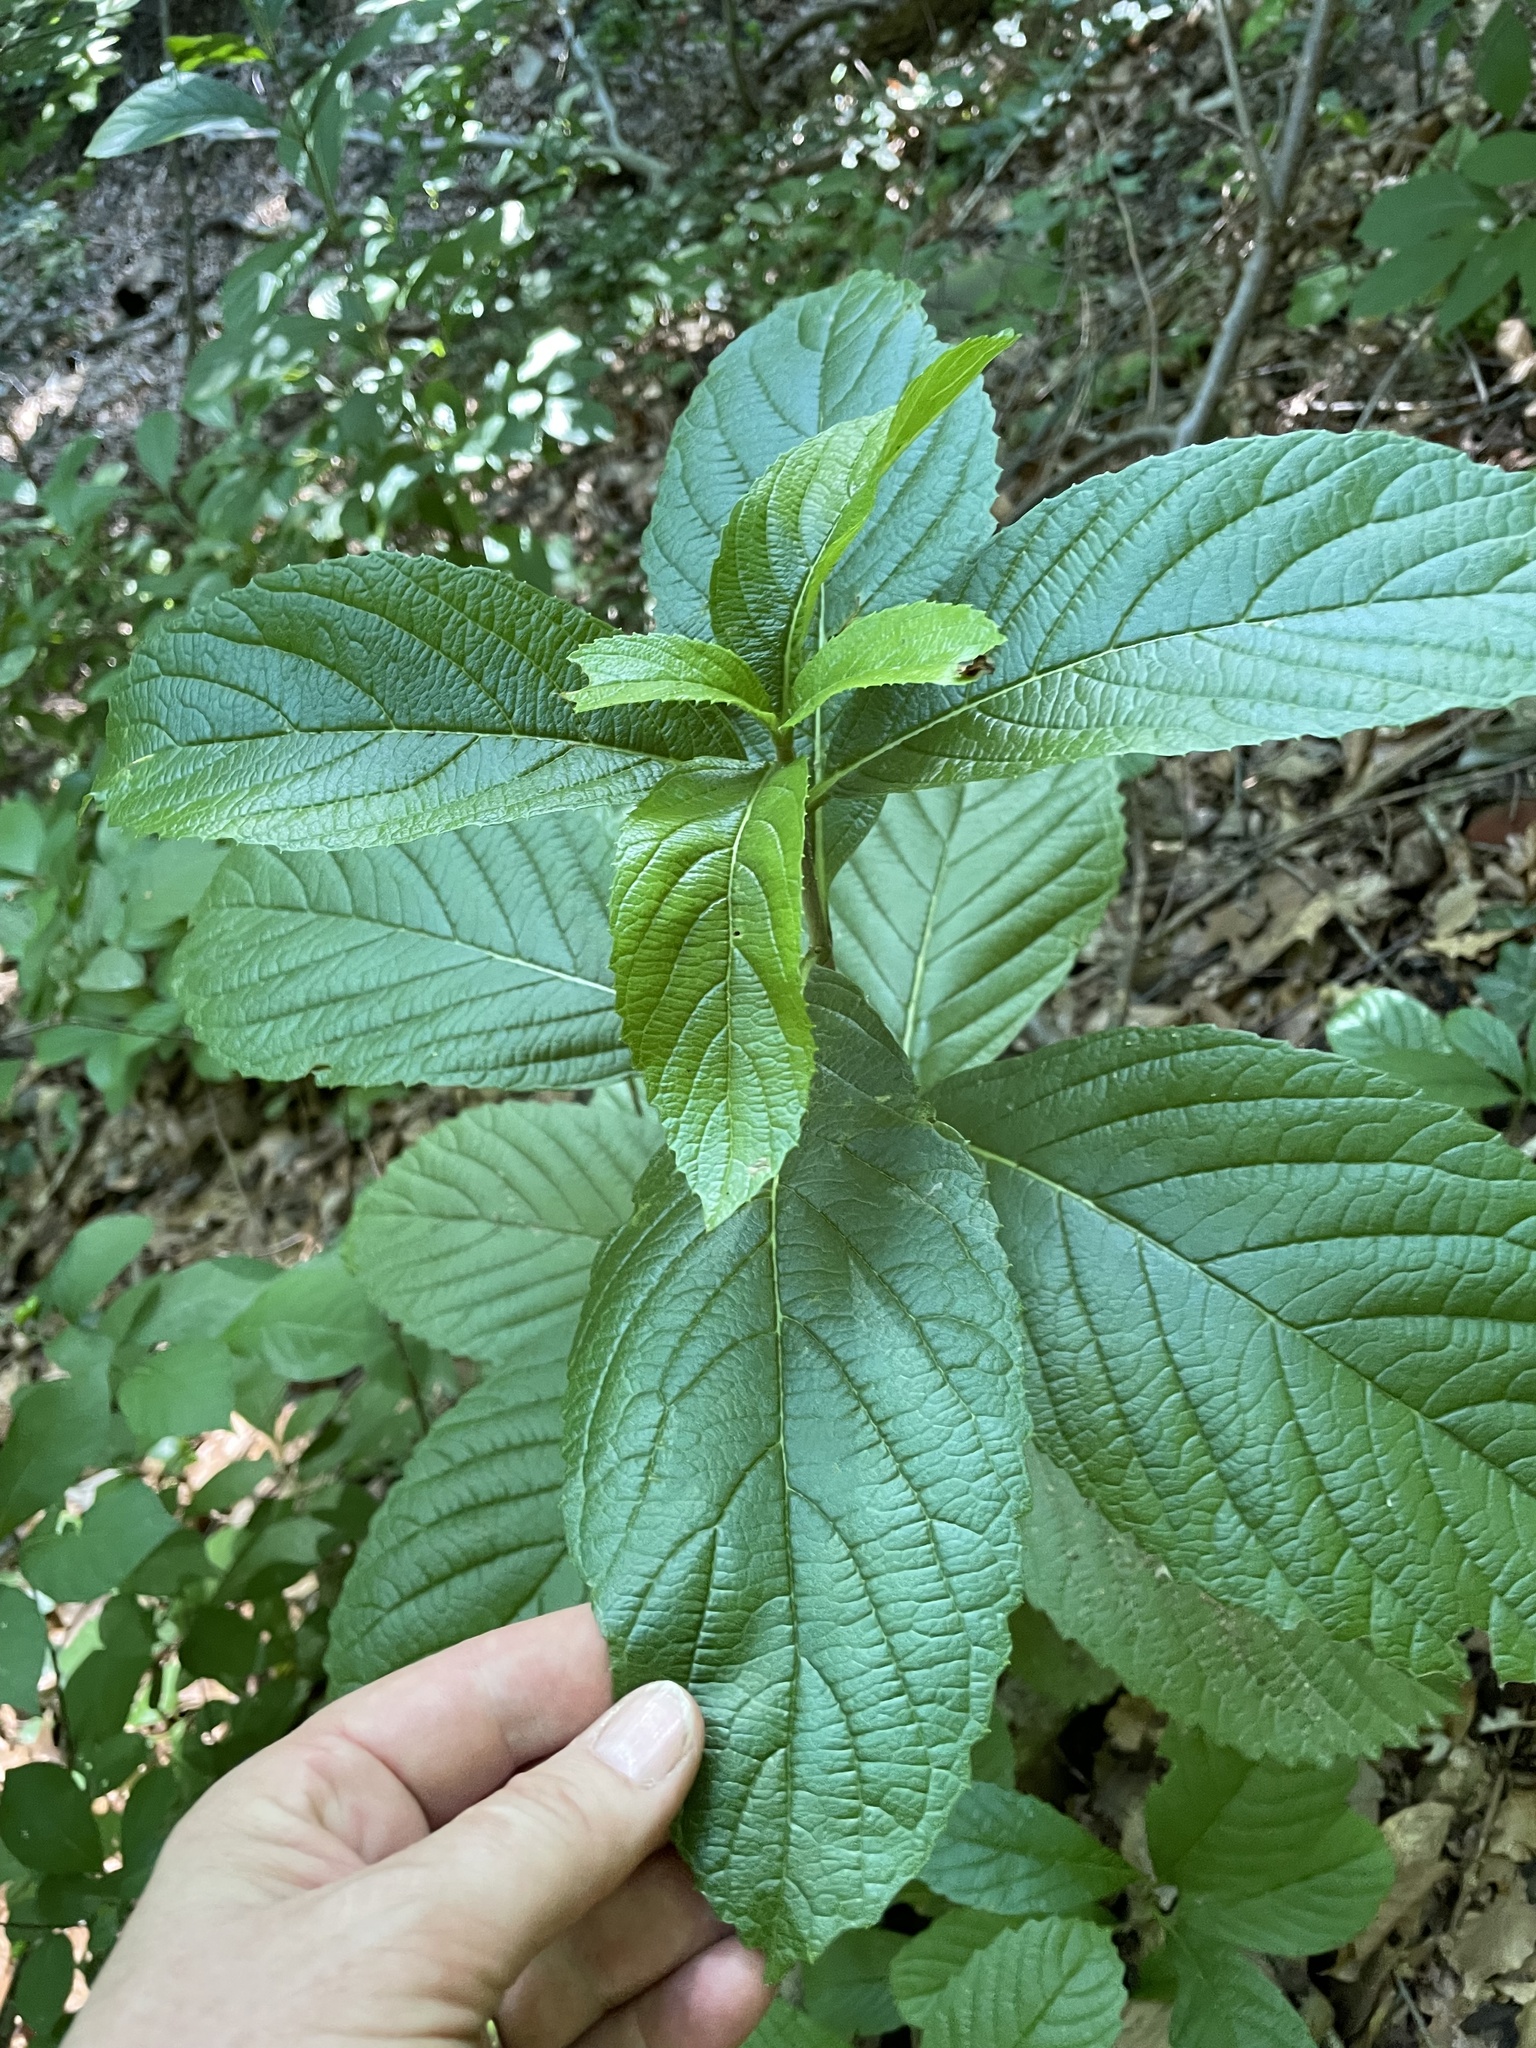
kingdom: Plantae
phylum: Tracheophyta
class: Magnoliopsida
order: Dipsacales
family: Viburnaceae
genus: Viburnum
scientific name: Viburnum sieboldii
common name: Siebold's arrowwood
